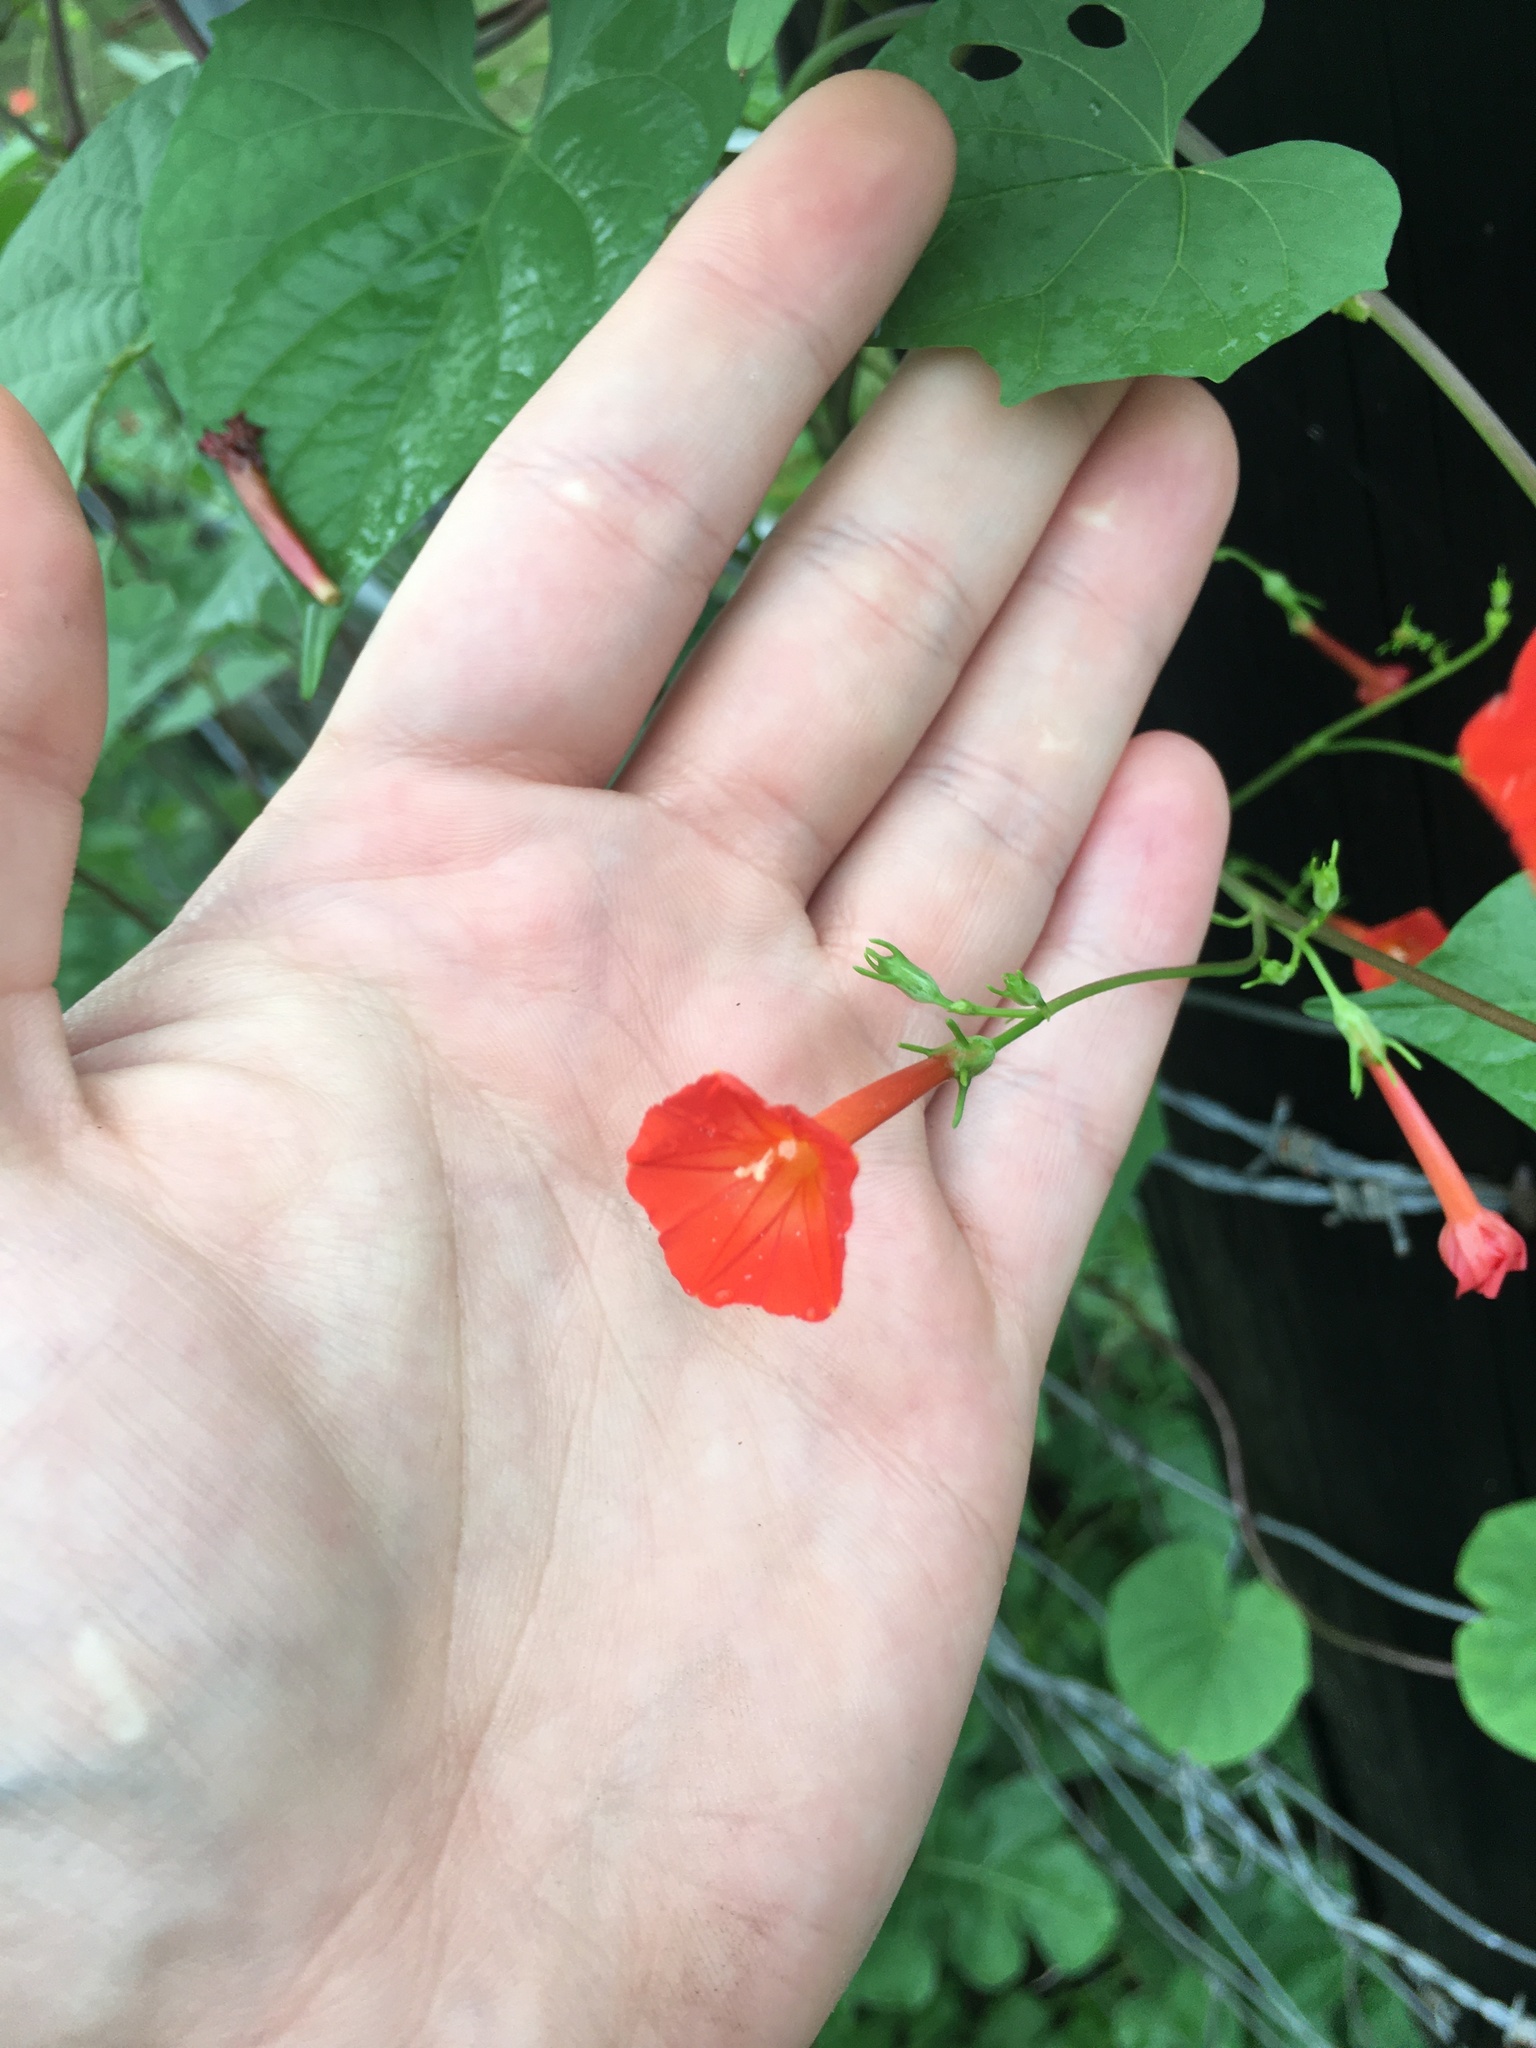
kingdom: Plantae
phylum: Tracheophyta
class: Magnoliopsida
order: Solanales
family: Convolvulaceae
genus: Ipomoea
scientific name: Ipomoea hederifolia
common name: Ivy-leaf morning-glory
